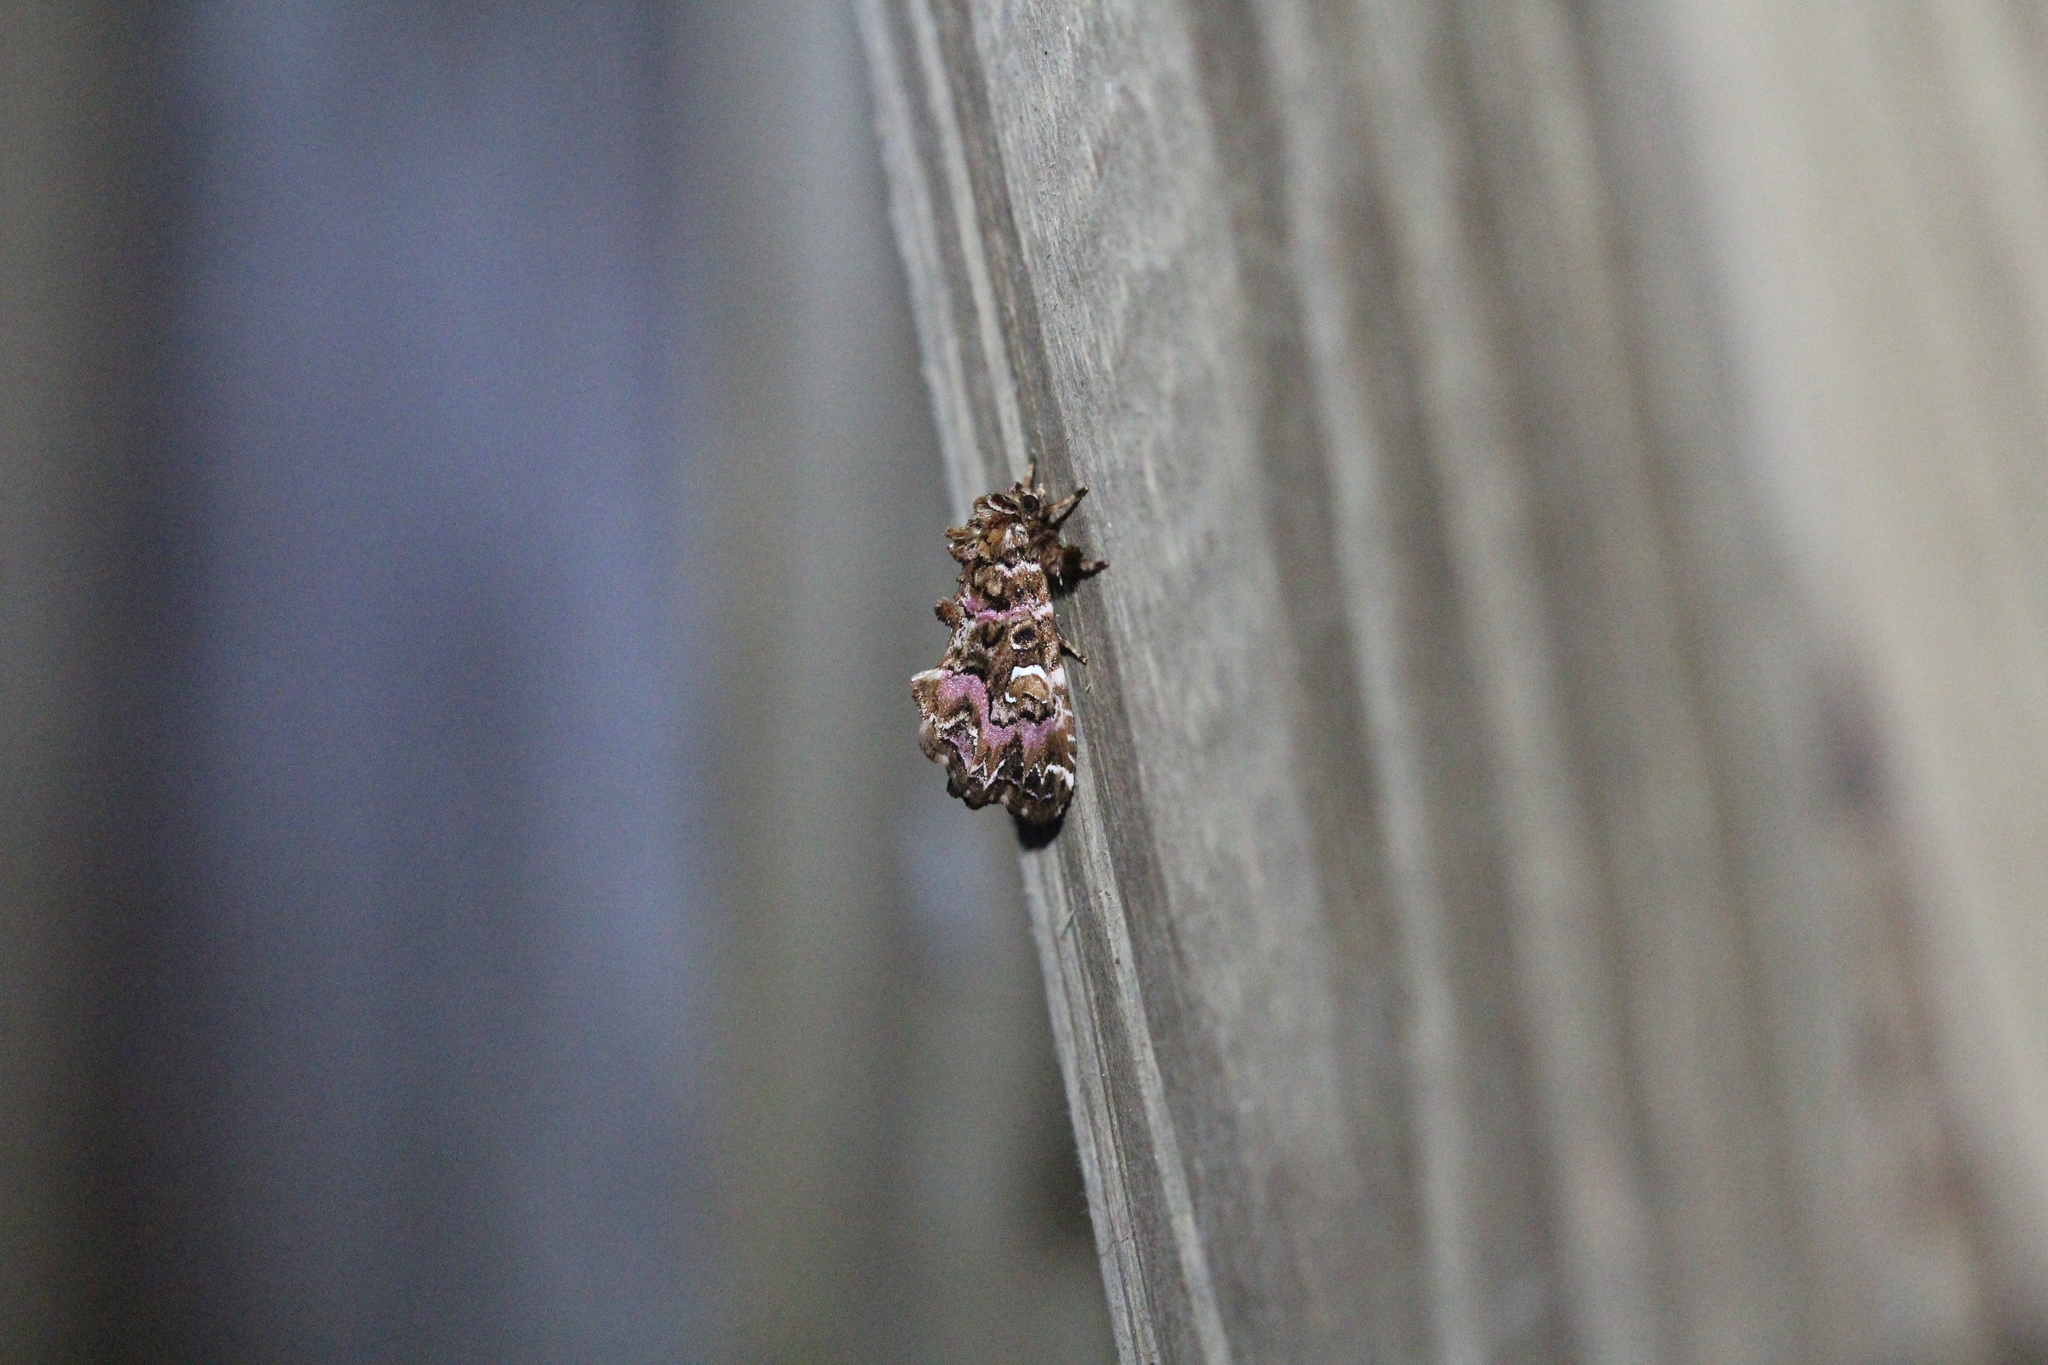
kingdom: Animalia
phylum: Arthropoda
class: Insecta
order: Lepidoptera
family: Noctuidae
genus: Callopistria
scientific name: Callopistria mollissima
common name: Pink-shaded fern moth
